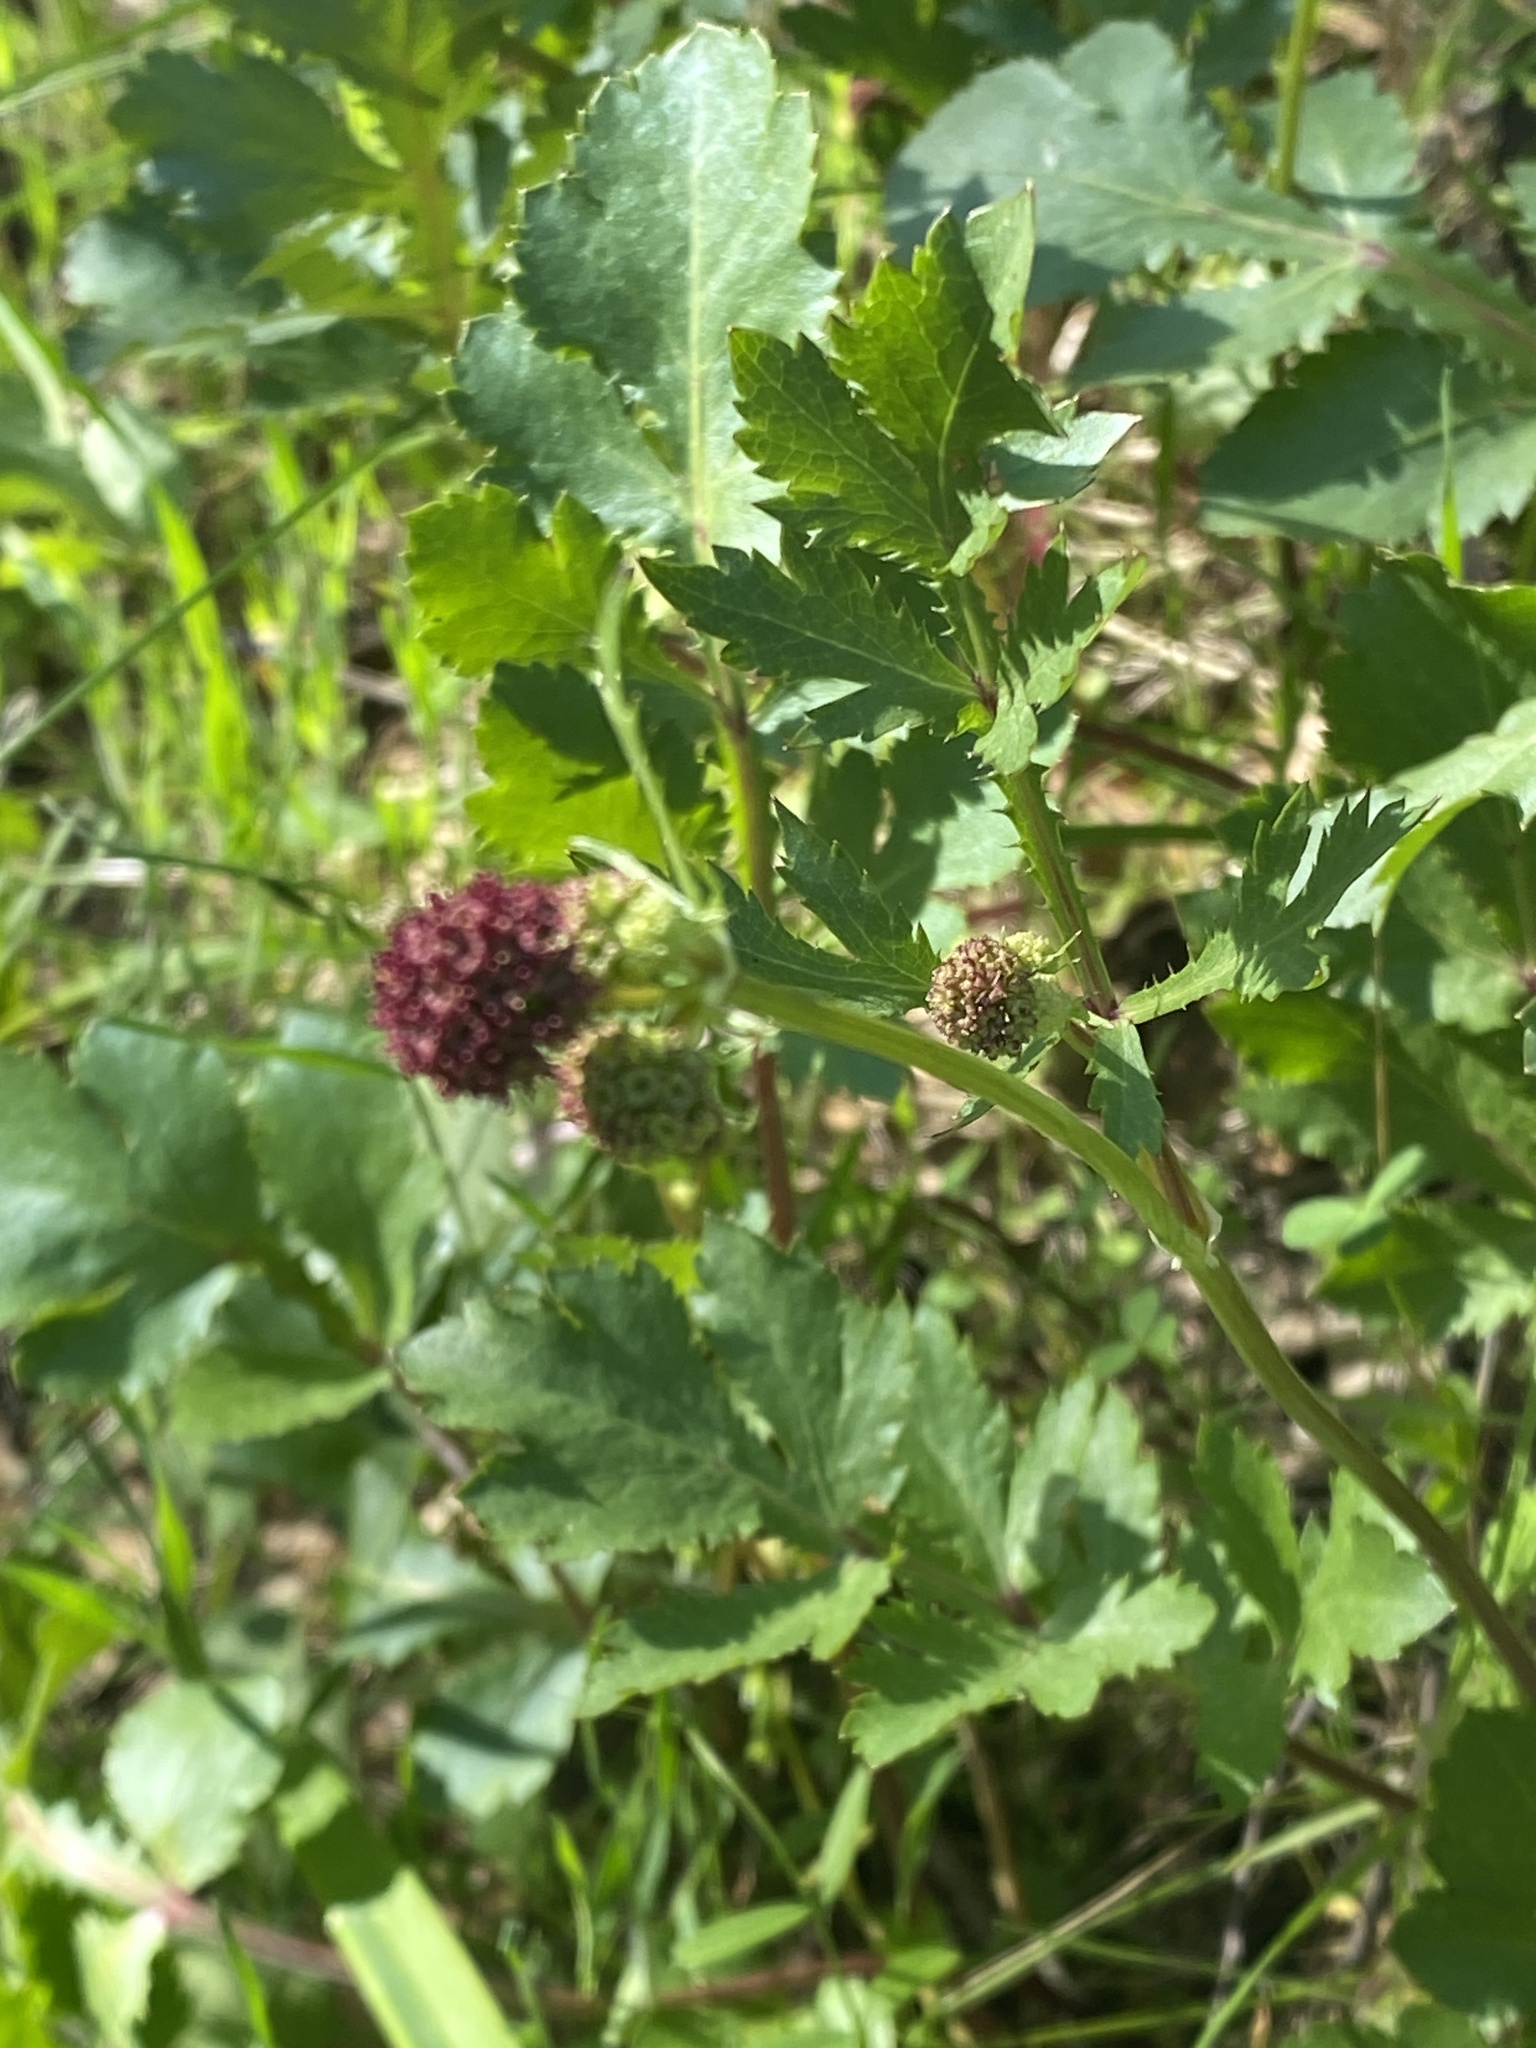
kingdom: Plantae
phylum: Tracheophyta
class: Magnoliopsida
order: Apiales
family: Apiaceae
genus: Sanicula
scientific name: Sanicula bipinnatifida
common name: Shoe-buttons
